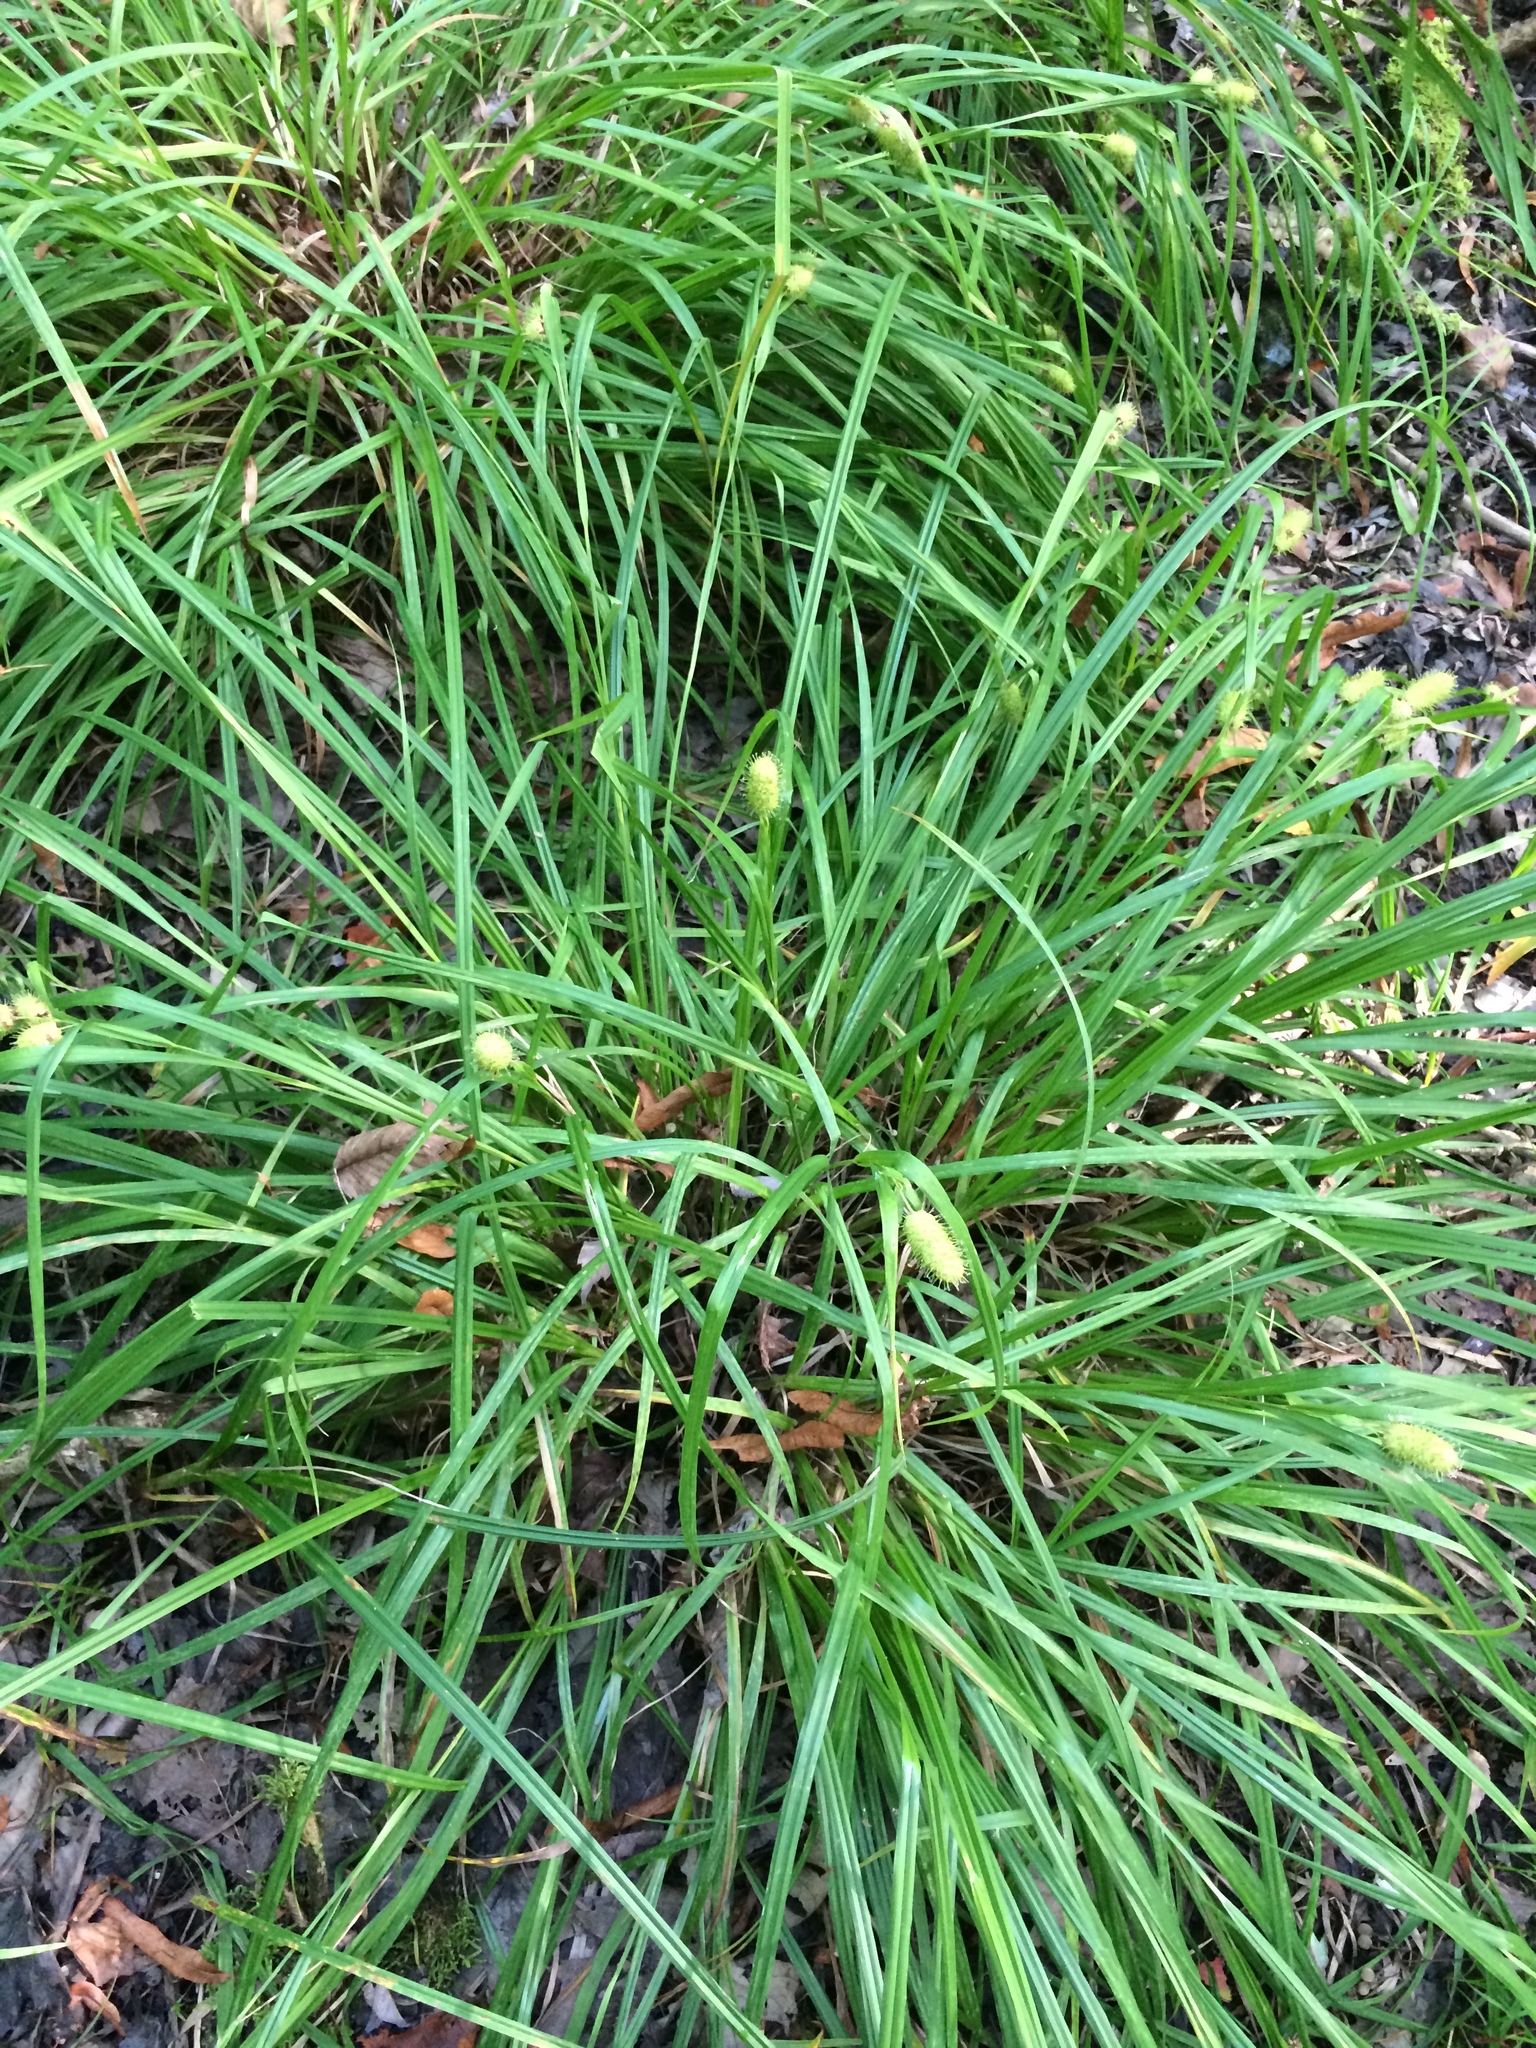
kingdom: Plantae
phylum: Tracheophyta
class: Liliopsida
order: Poales
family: Cyperaceae
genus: Carex
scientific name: Carex typhina
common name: Cattail sedge
